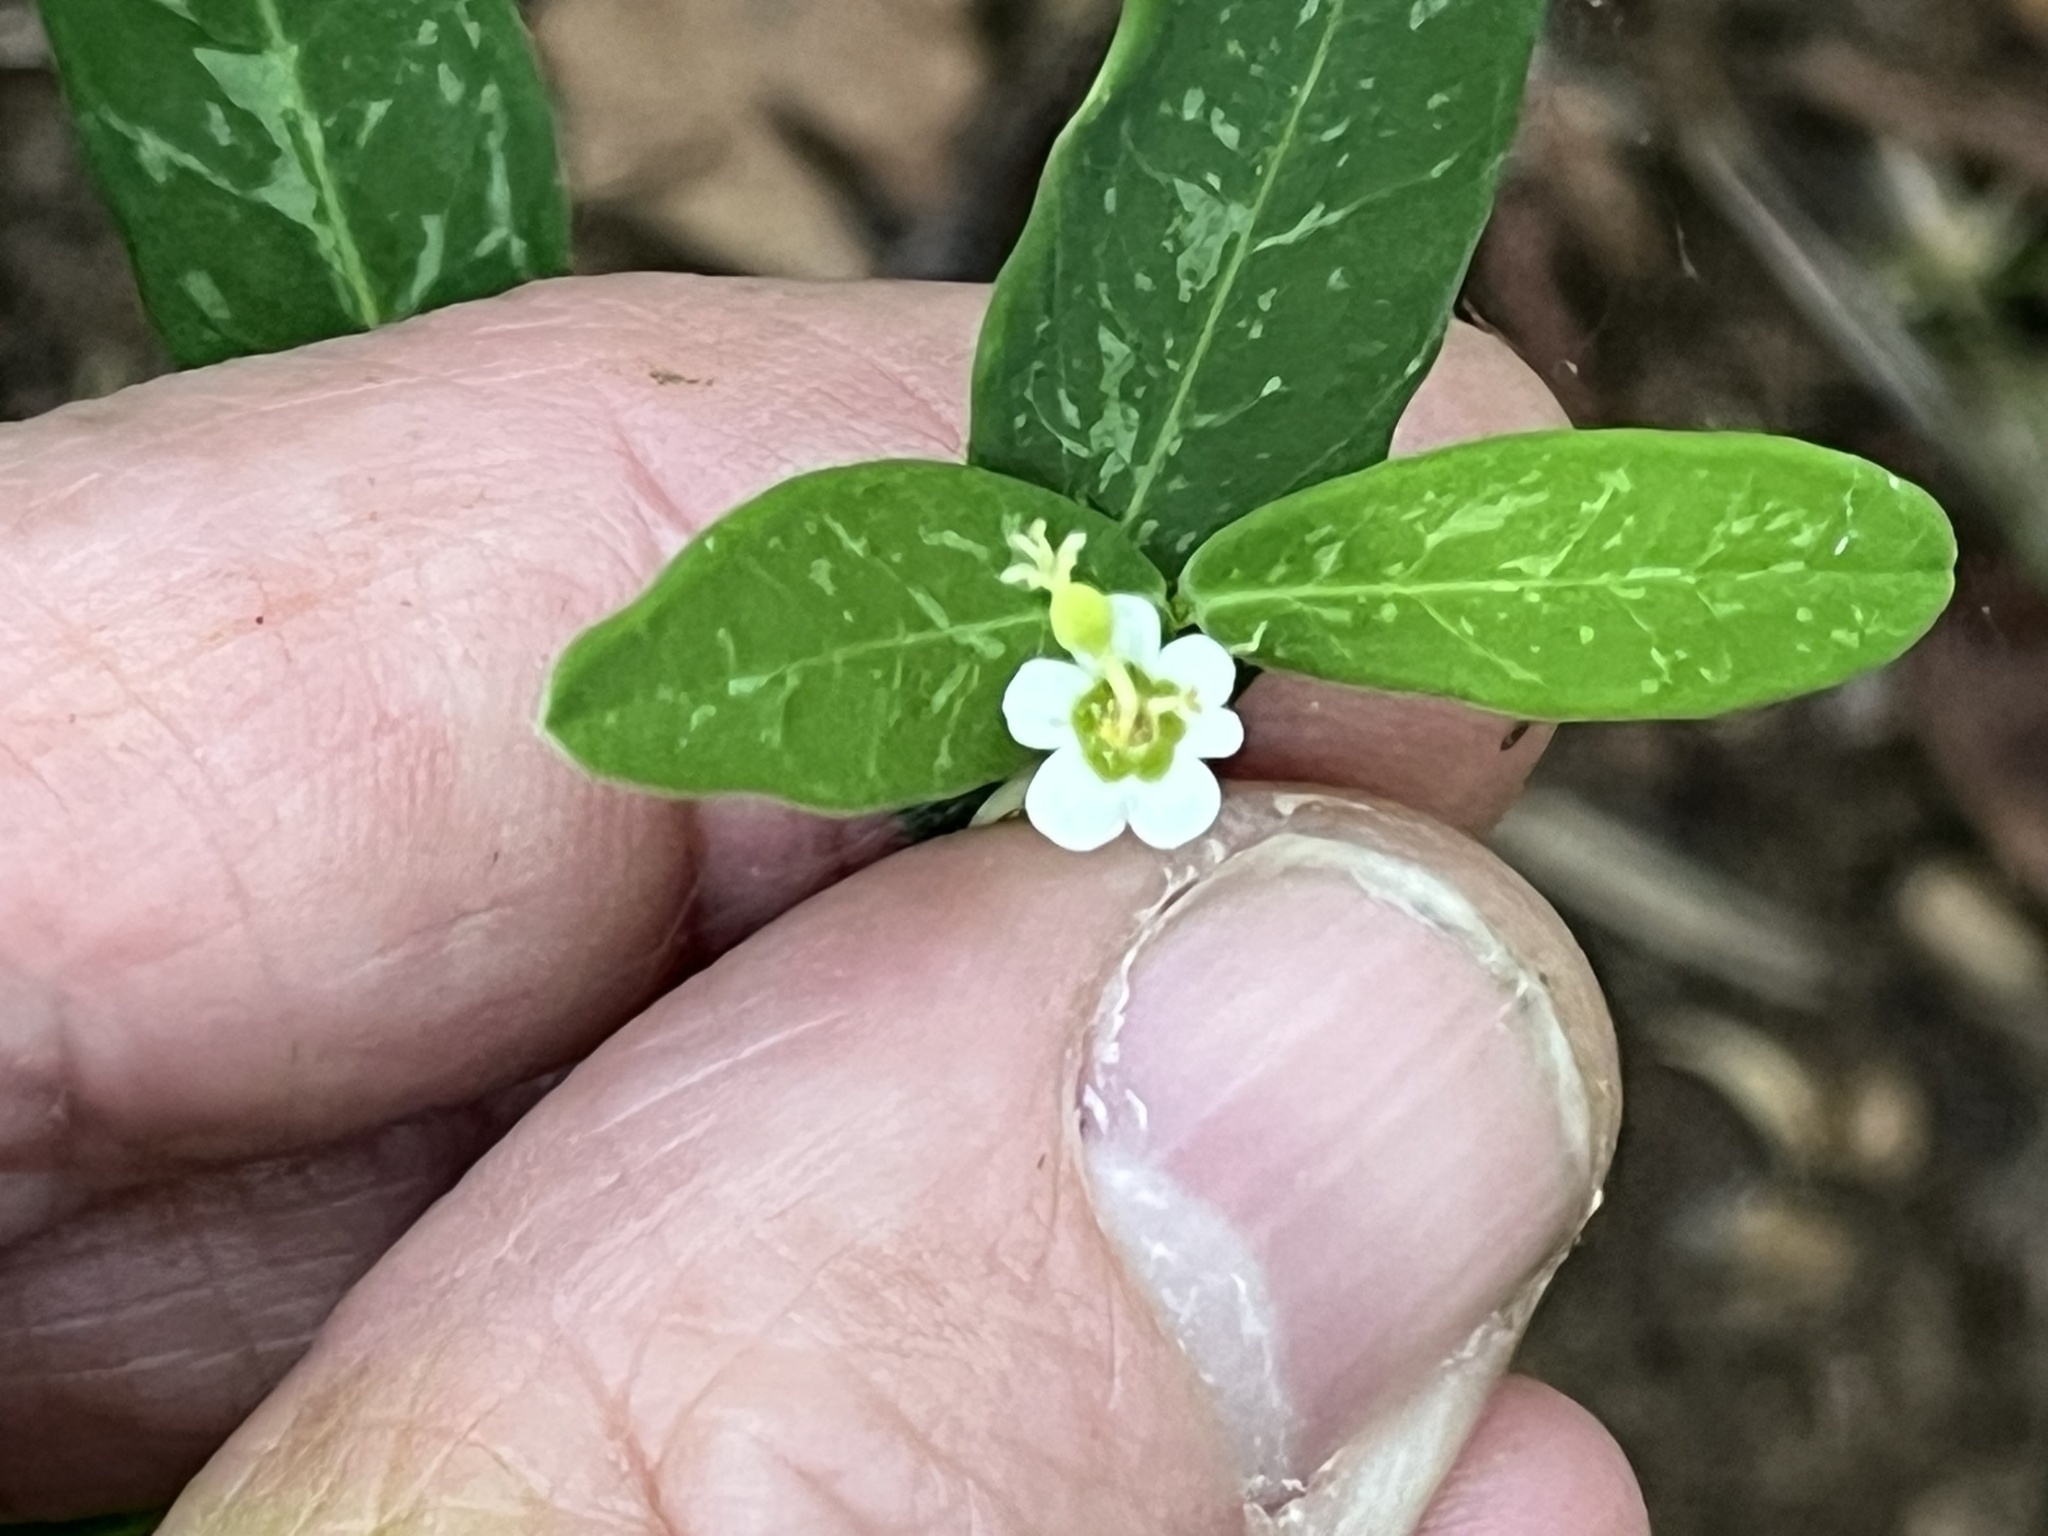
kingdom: Plantae
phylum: Tracheophyta
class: Magnoliopsida
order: Malpighiales
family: Euphorbiaceae
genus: Euphorbia
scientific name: Euphorbia pubentissima
